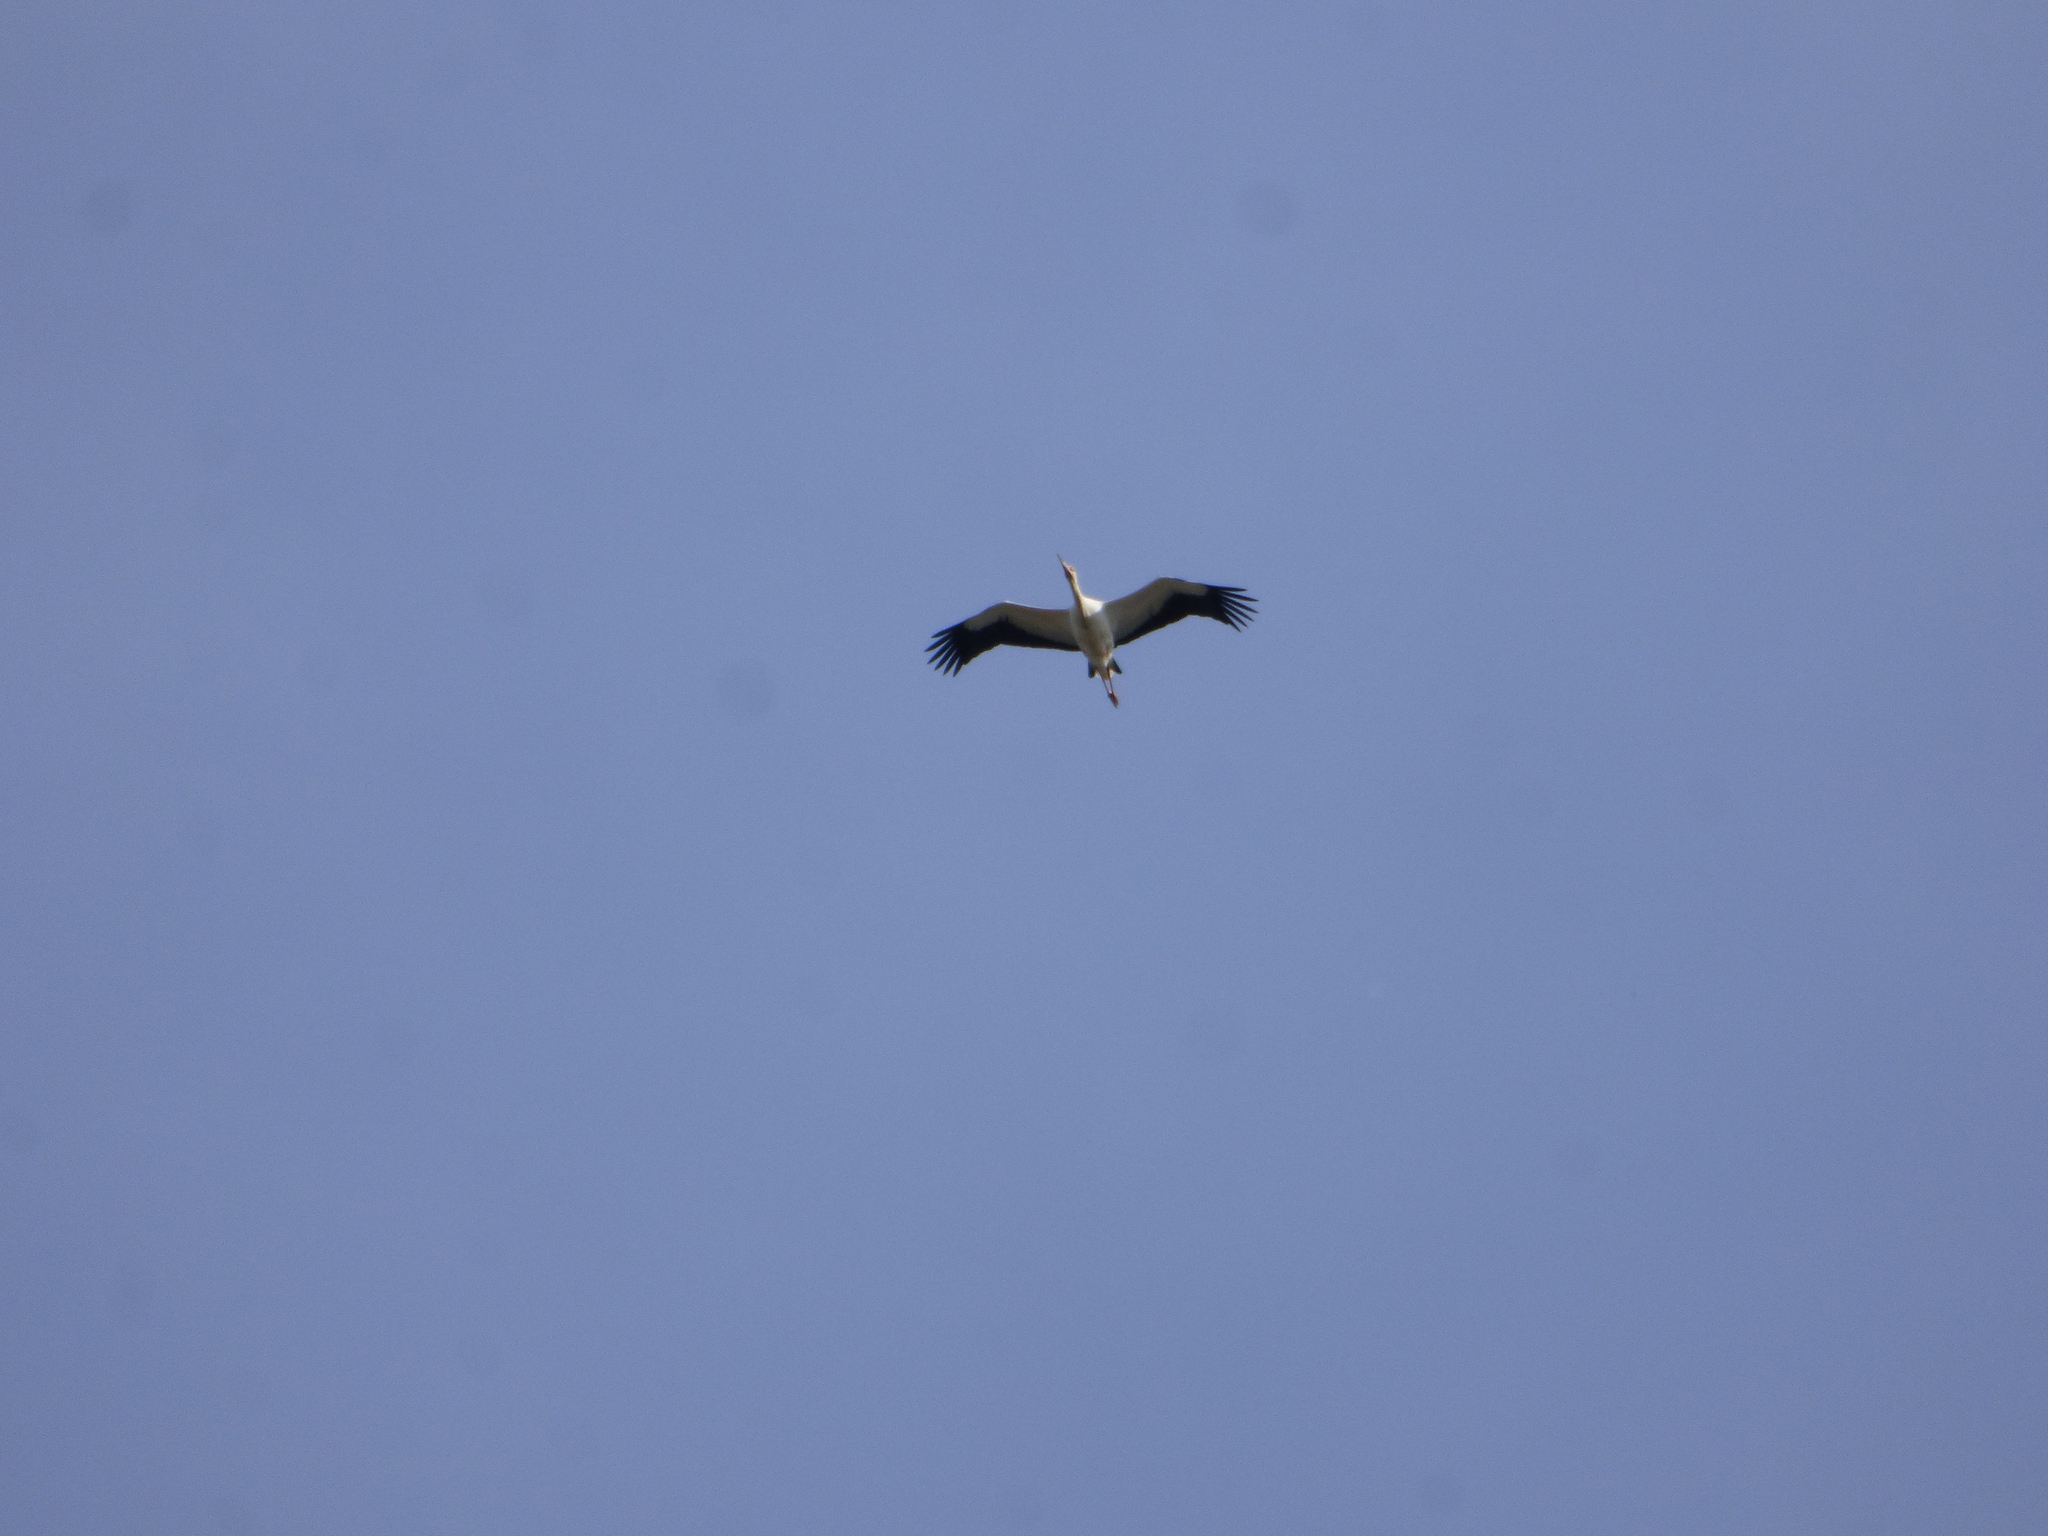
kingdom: Animalia
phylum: Chordata
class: Aves
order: Ciconiiformes
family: Ciconiidae
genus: Ciconia
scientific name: Ciconia maguari
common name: Maguari stork
